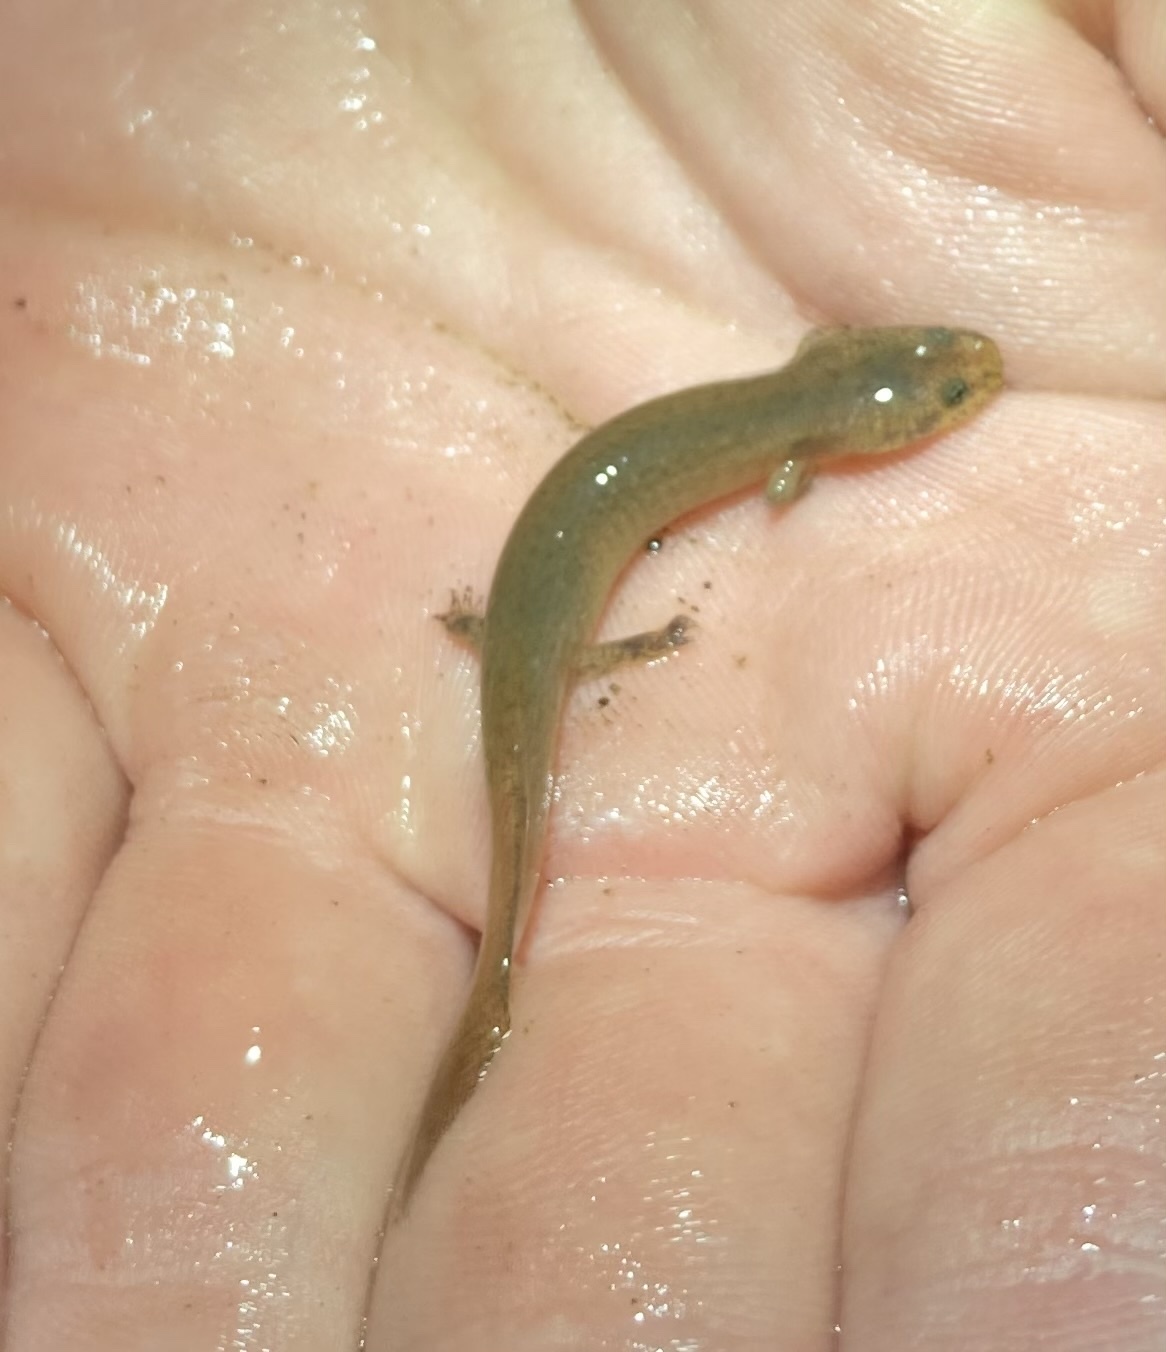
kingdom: Animalia
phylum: Chordata
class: Amphibia
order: Caudata
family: Plethodontidae
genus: Pseudotriton
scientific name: Pseudotriton ruber
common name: Red salamander
